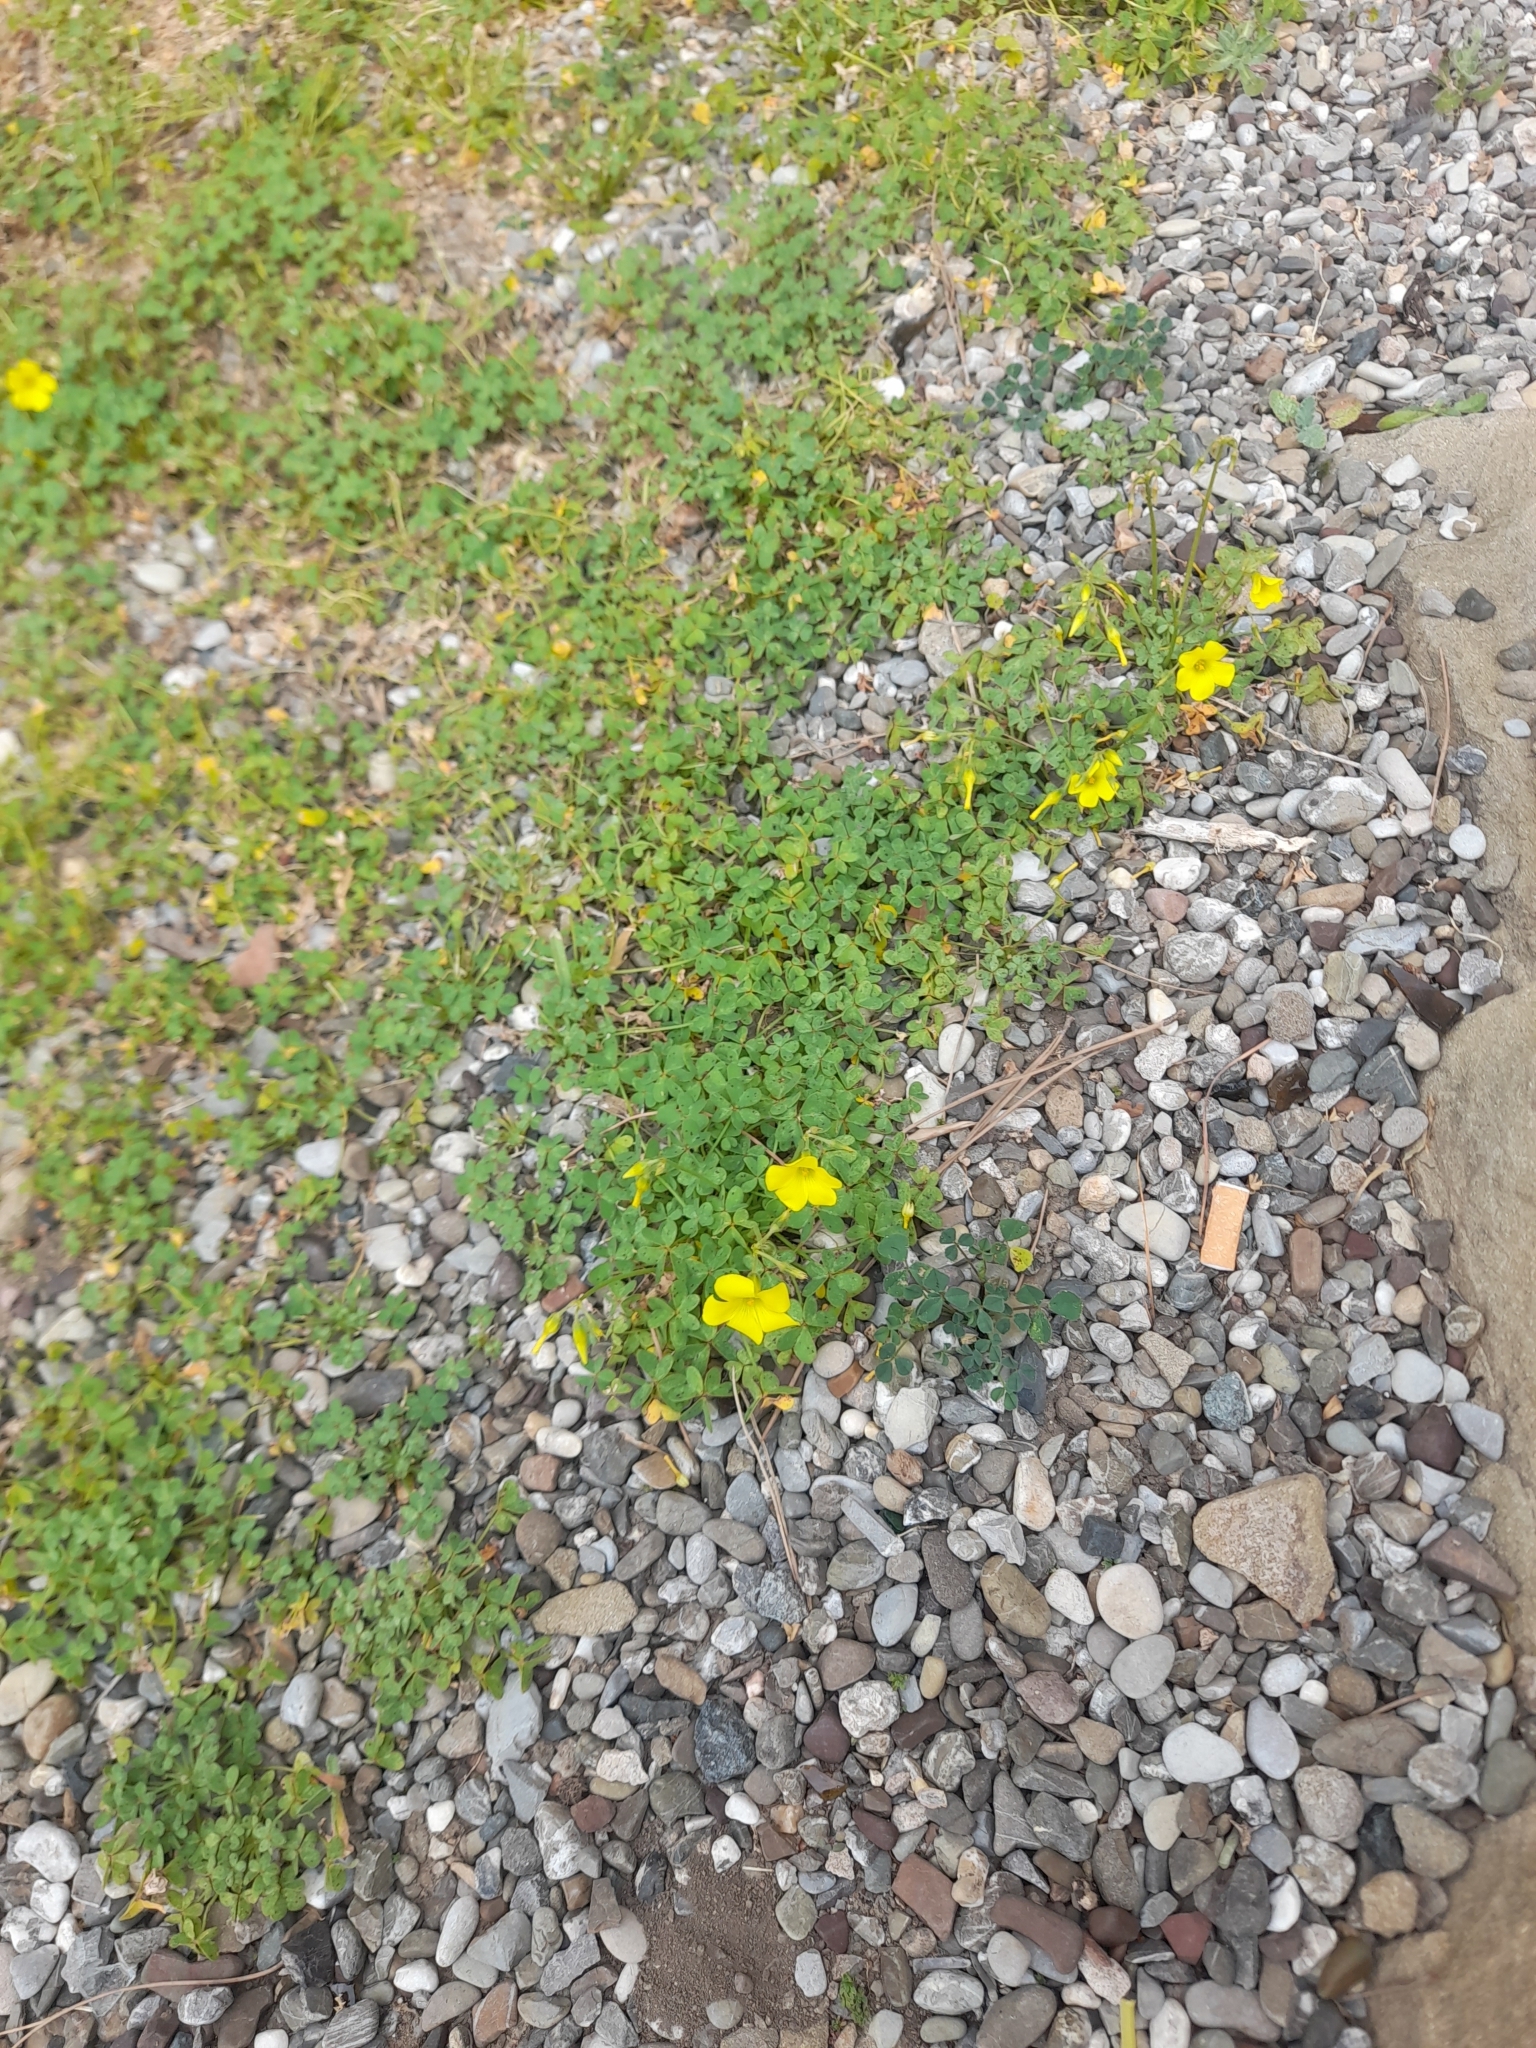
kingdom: Plantae
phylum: Tracheophyta
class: Magnoliopsida
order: Oxalidales
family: Oxalidaceae
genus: Oxalis
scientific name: Oxalis pes-caprae
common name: Bermuda-buttercup
